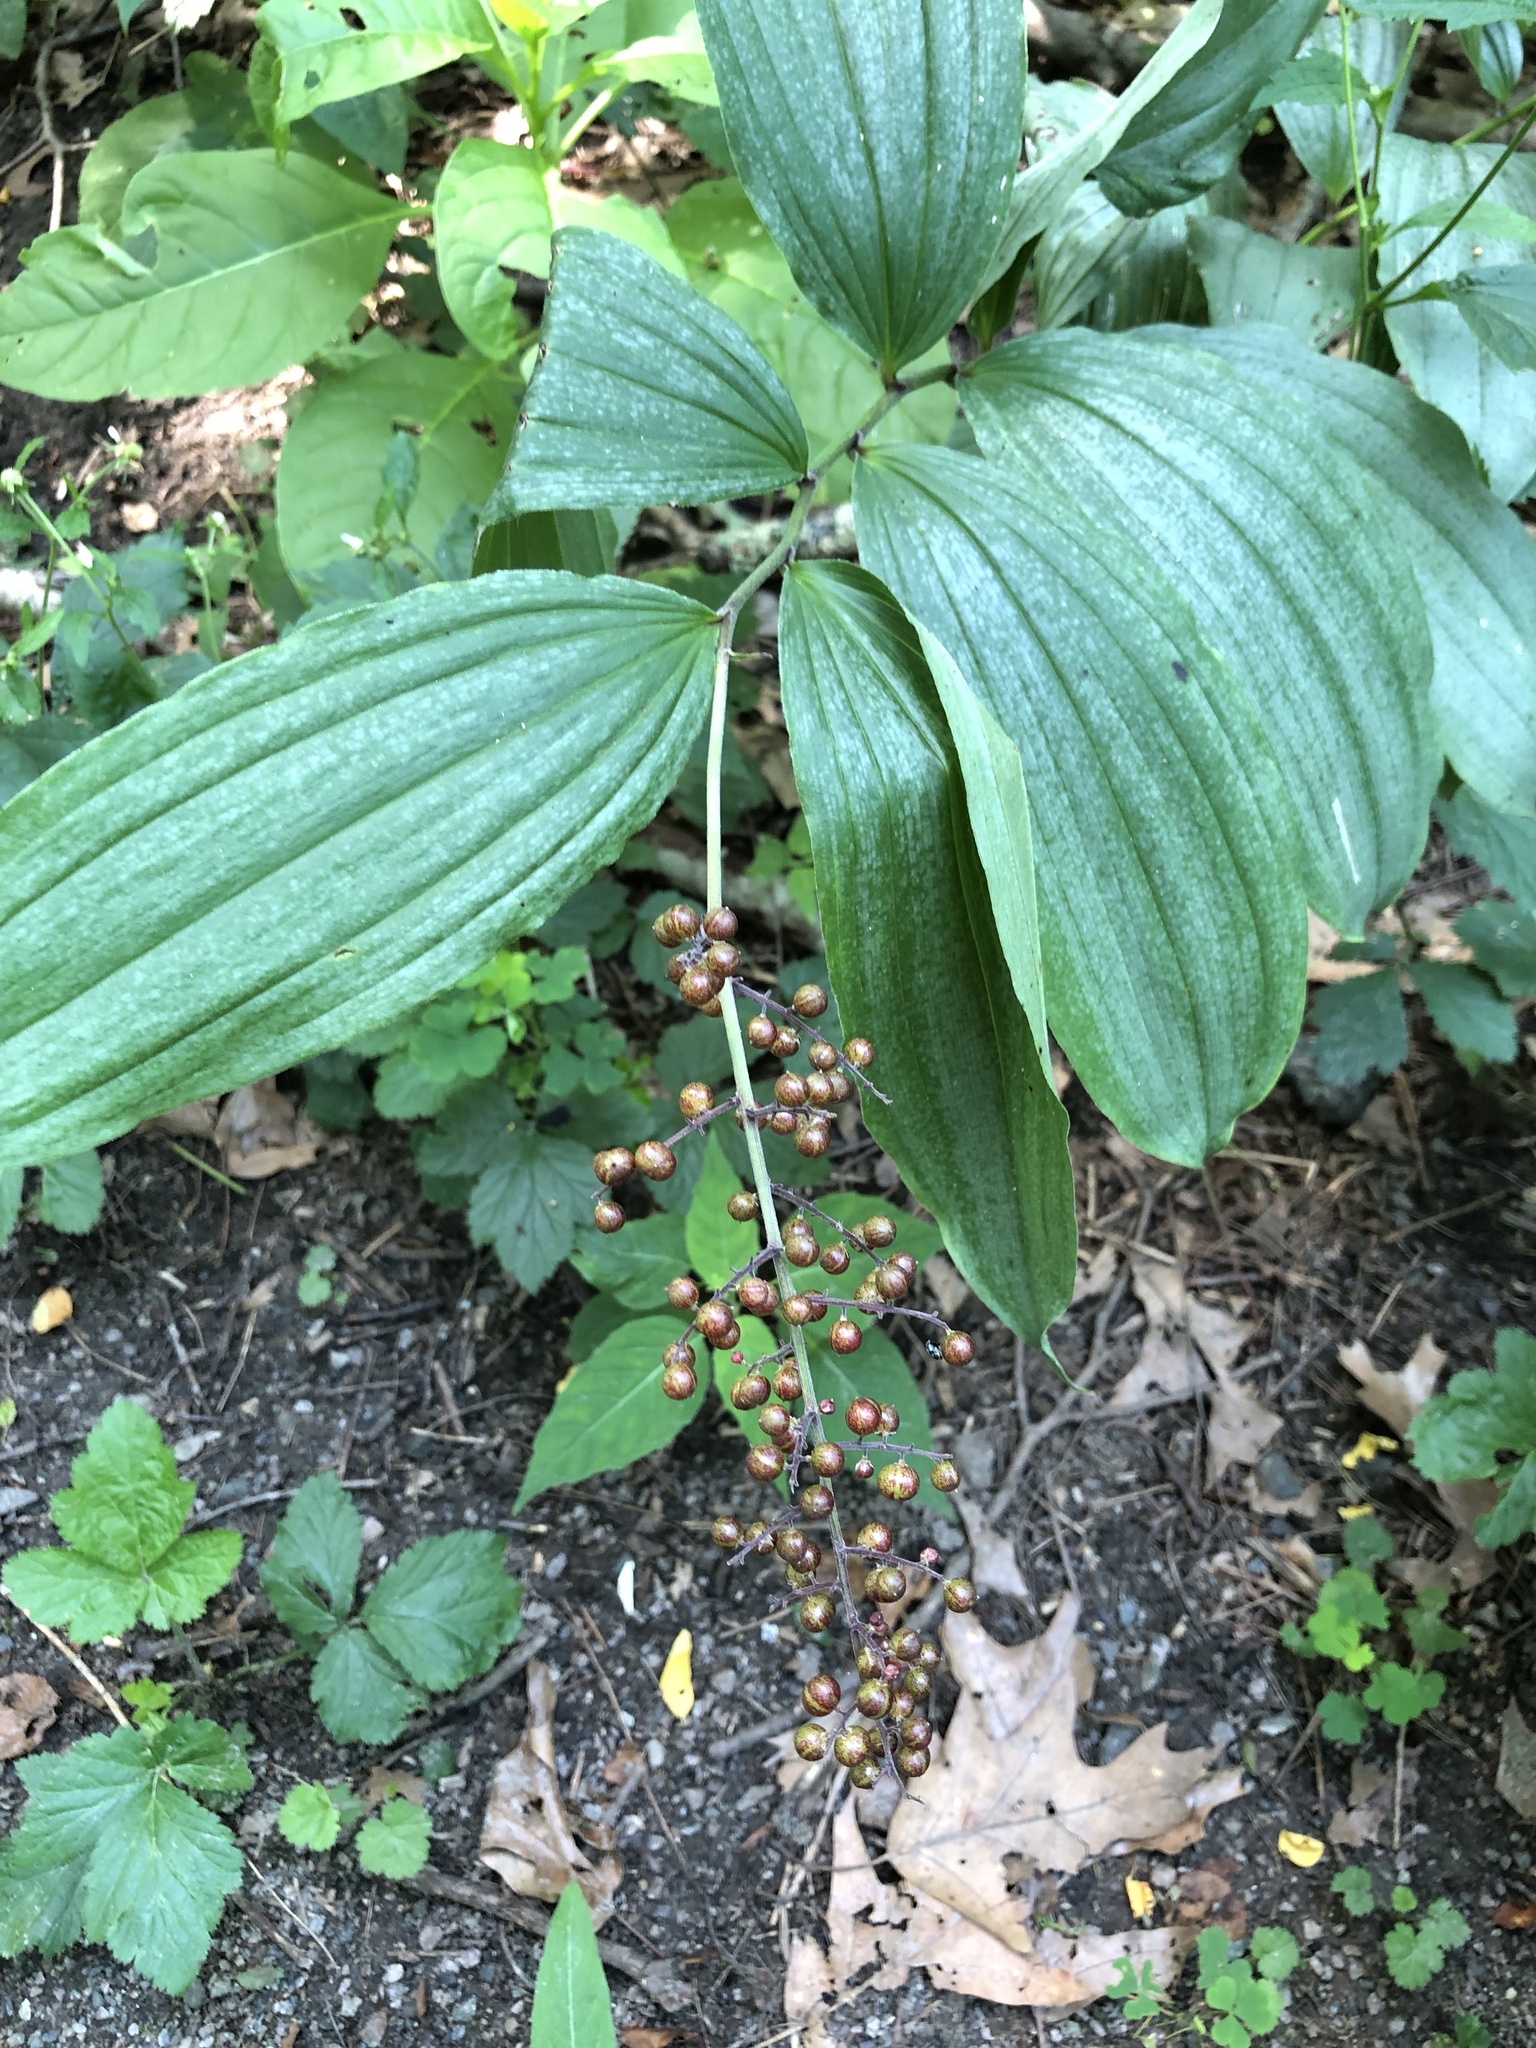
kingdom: Plantae
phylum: Tracheophyta
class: Liliopsida
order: Asparagales
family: Asparagaceae
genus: Maianthemum
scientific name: Maianthemum racemosum
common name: False spikenard
